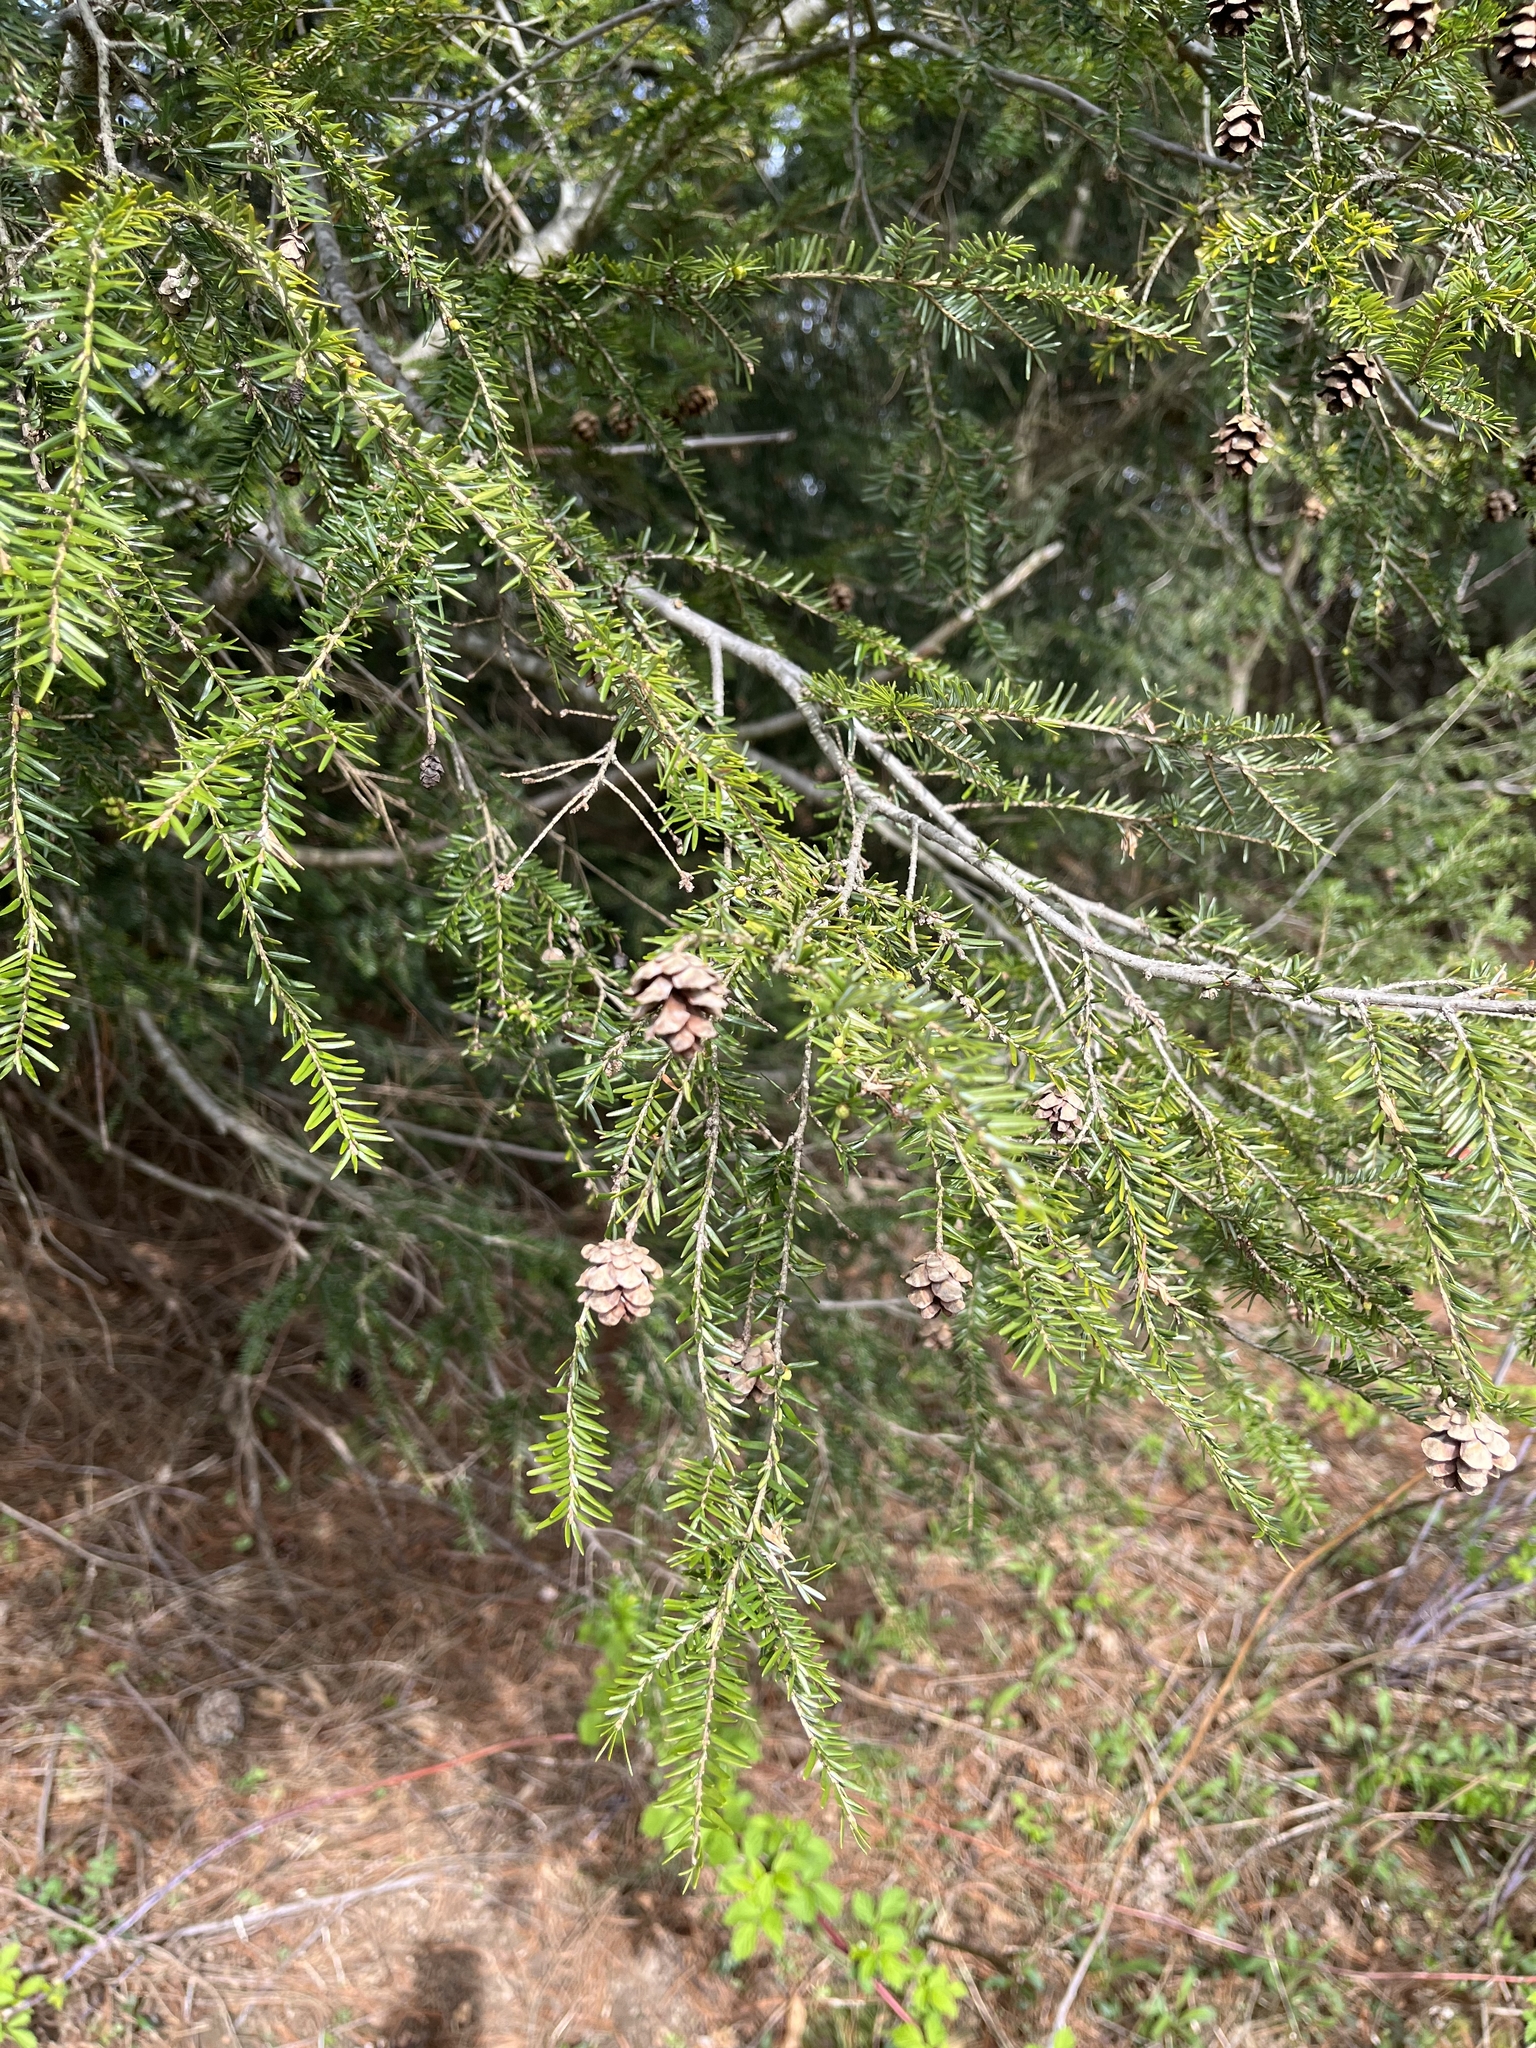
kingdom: Plantae
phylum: Tracheophyta
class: Pinopsida
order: Pinales
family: Pinaceae
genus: Tsuga
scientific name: Tsuga canadensis
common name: Eastern hemlock
